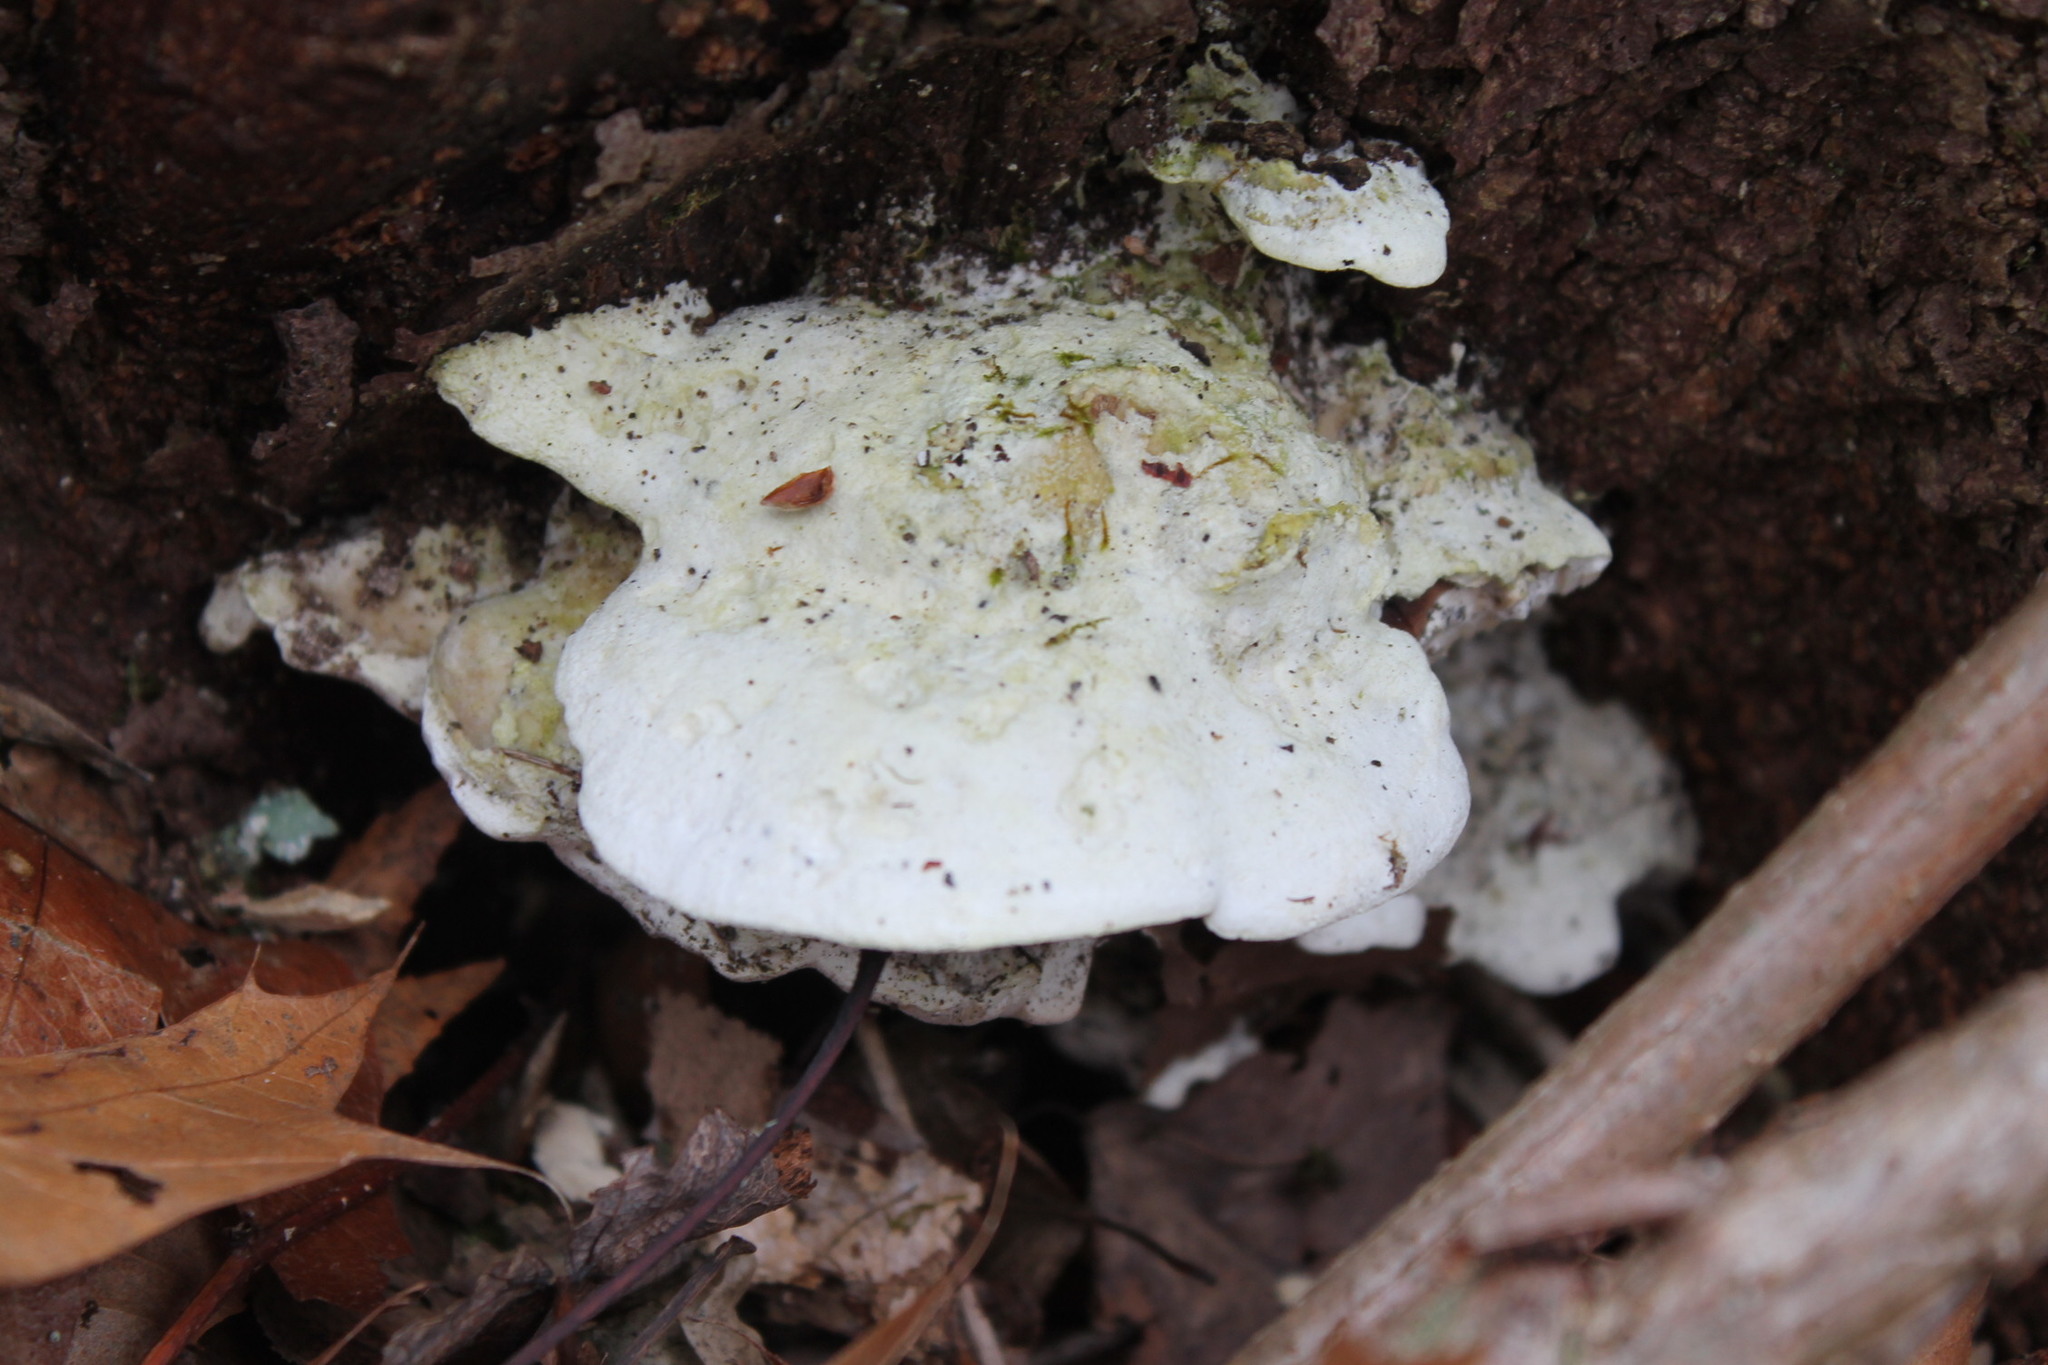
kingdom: Fungi
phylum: Basidiomycota
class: Agaricomycetes
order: Polyporales
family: Incrustoporiaceae
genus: Tyromyces
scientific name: Tyromyces chioneus
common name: White cheese polypore
